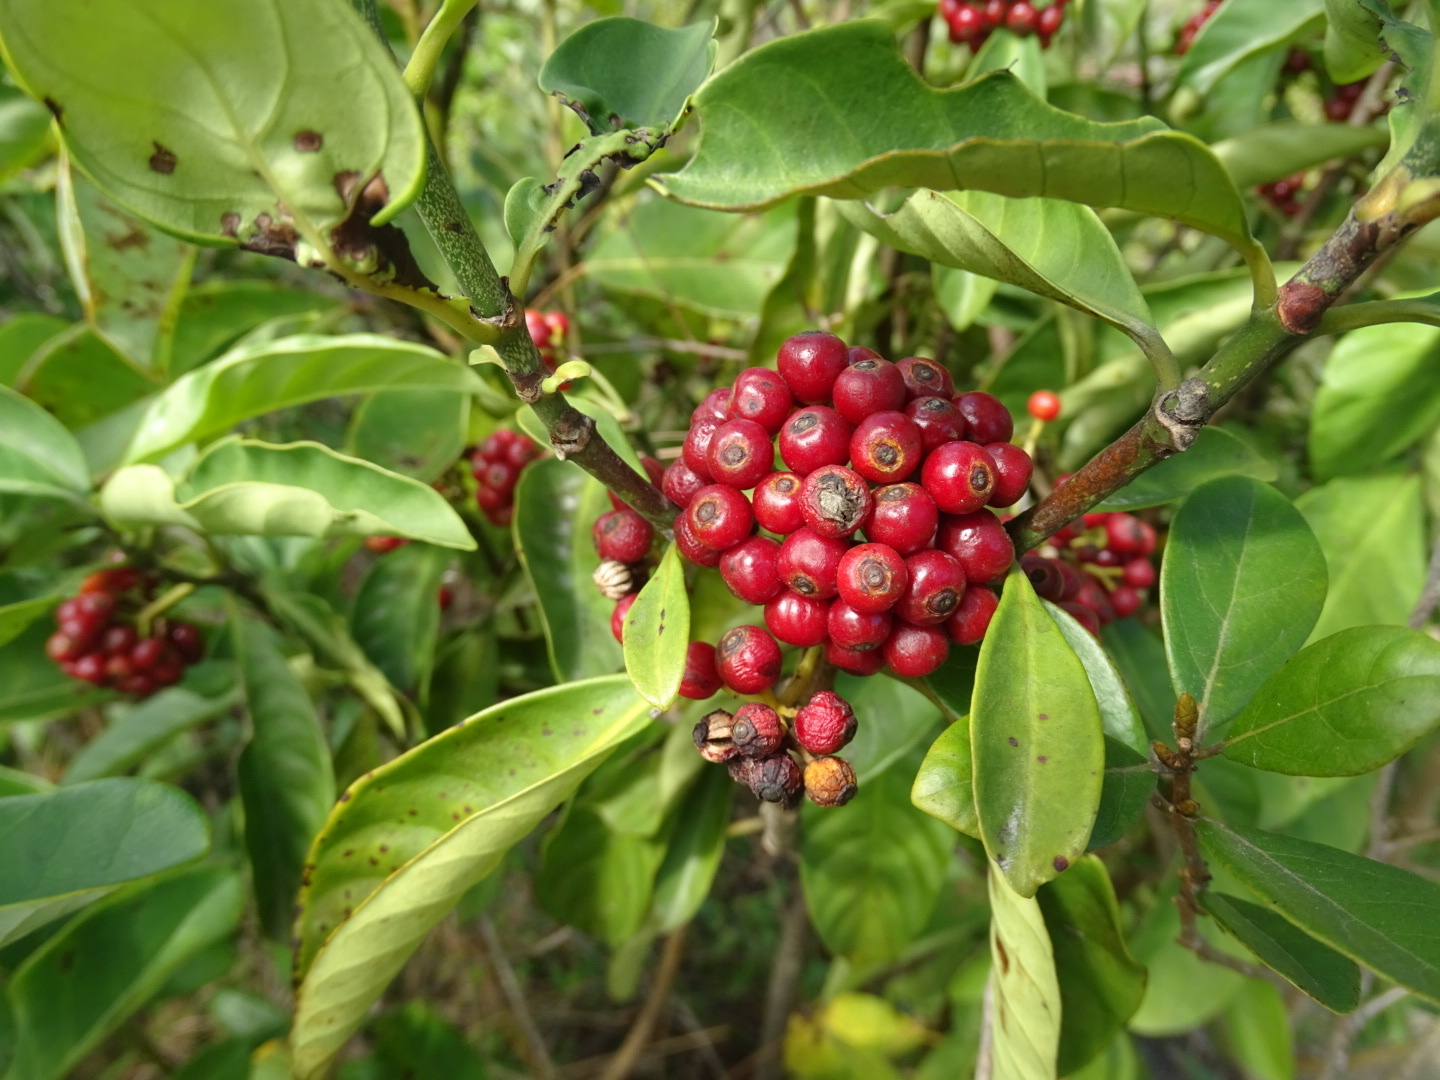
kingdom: Plantae
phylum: Tracheophyta
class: Magnoliopsida
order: Aquifoliales
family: Aquifoliaceae
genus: Ilex
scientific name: Ilex rotunda
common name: Kurogane holly
